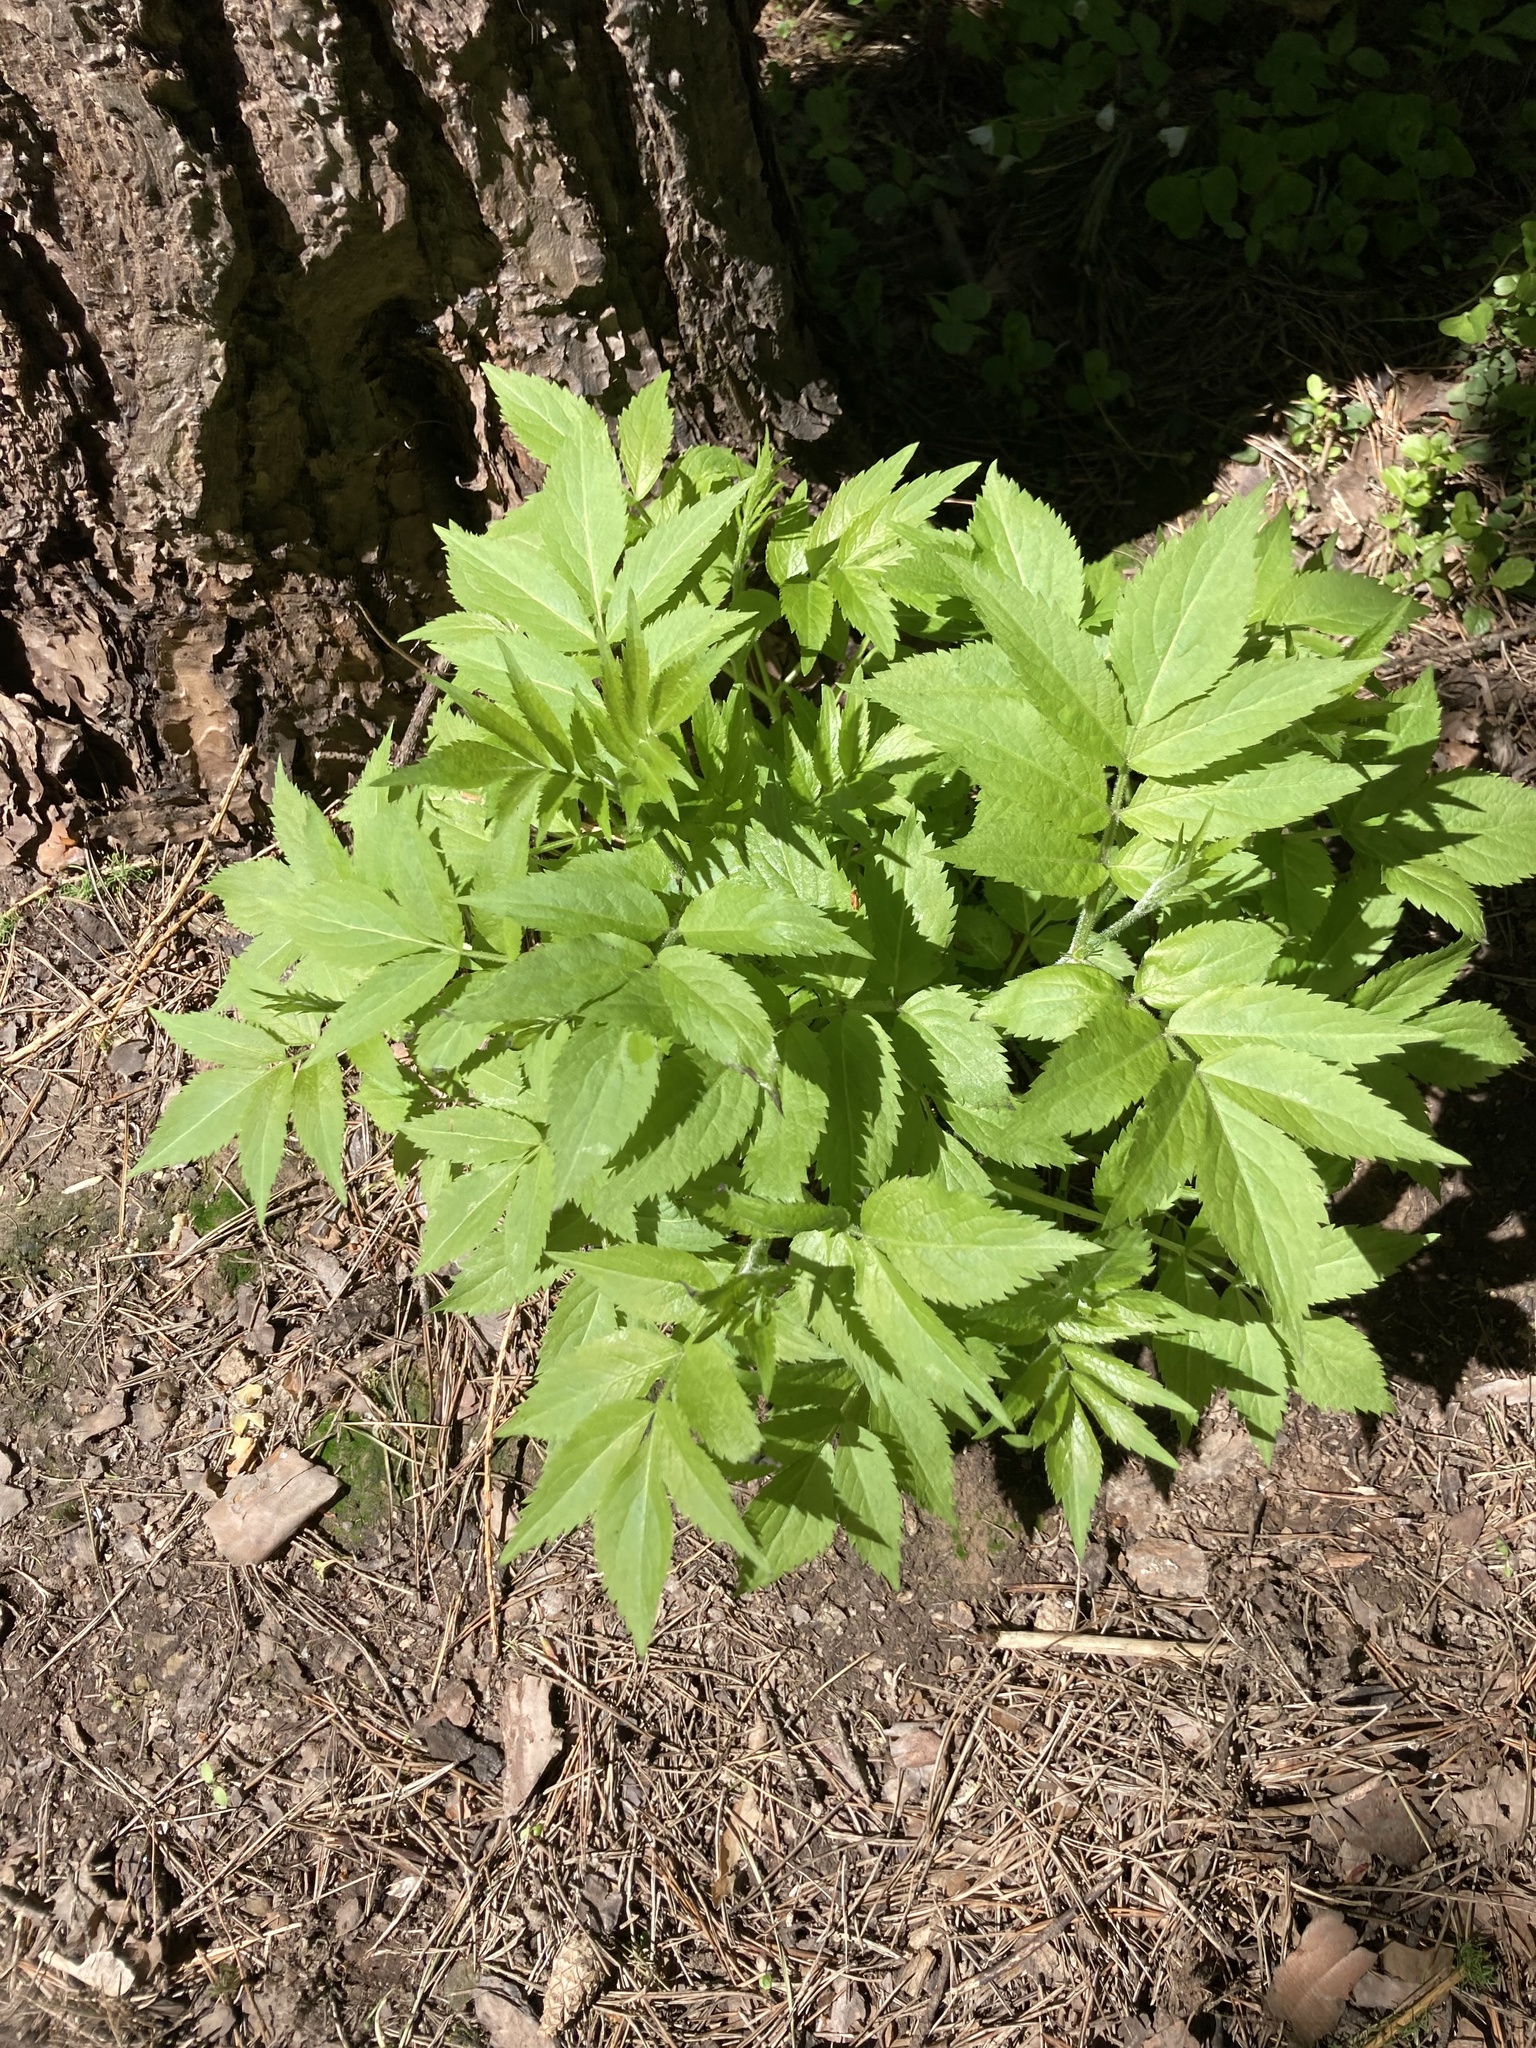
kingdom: Plantae
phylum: Tracheophyta
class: Magnoliopsida
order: Dipsacales
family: Viburnaceae
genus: Sambucus
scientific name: Sambucus nigra
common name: Elder
